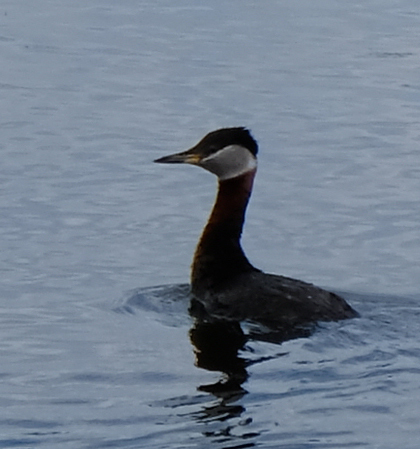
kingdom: Animalia
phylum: Chordata
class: Aves
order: Podicipediformes
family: Podicipedidae
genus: Podiceps
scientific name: Podiceps grisegena
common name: Red-necked grebe
